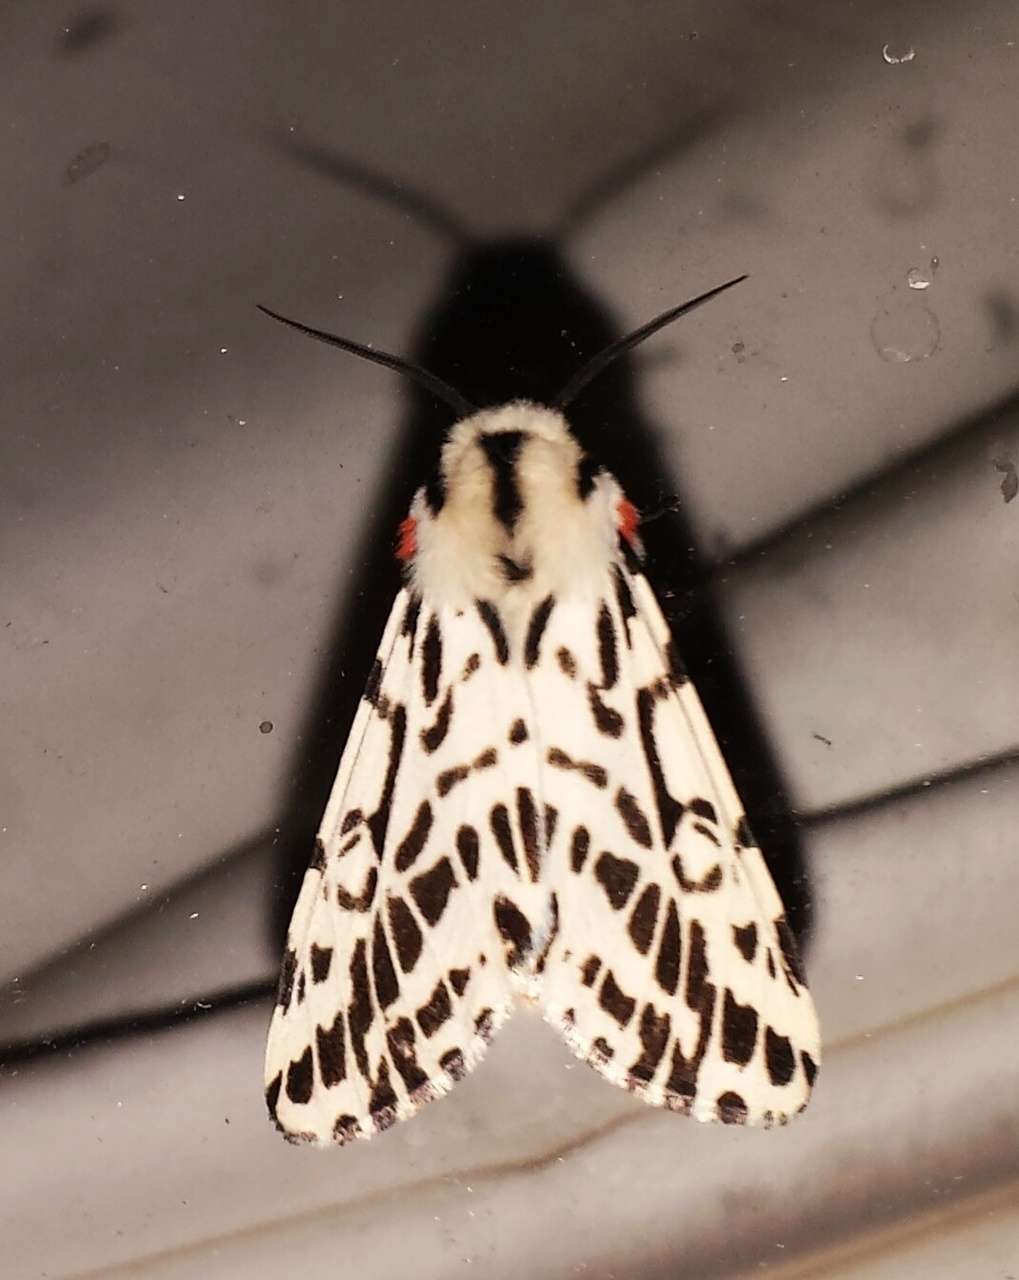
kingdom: Animalia
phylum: Arthropoda
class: Insecta
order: Lepidoptera
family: Erebidae
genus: Ardices
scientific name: Ardices glatignyi
